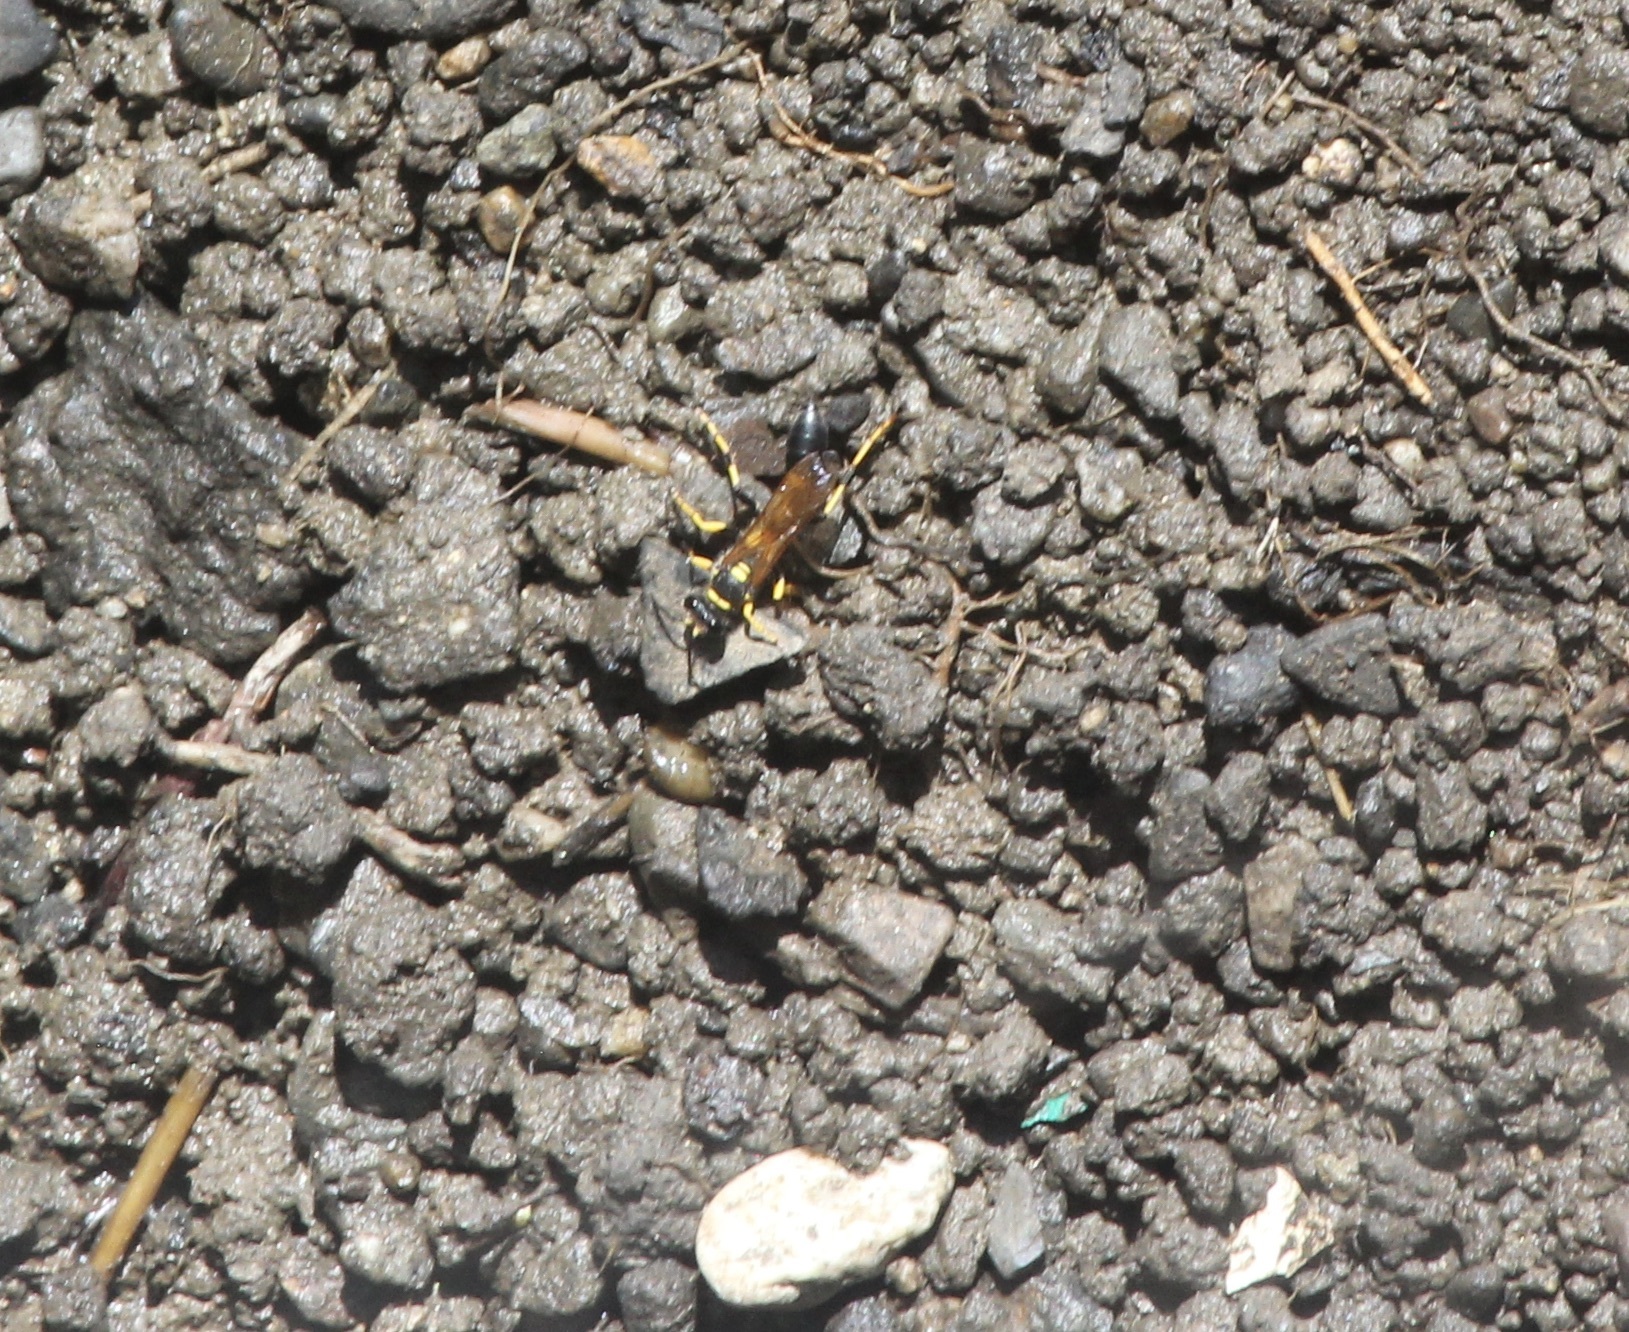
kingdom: Animalia
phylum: Arthropoda
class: Insecta
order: Hymenoptera
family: Sphecidae
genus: Sceliphron
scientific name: Sceliphron caementarium
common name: Mud dauber
